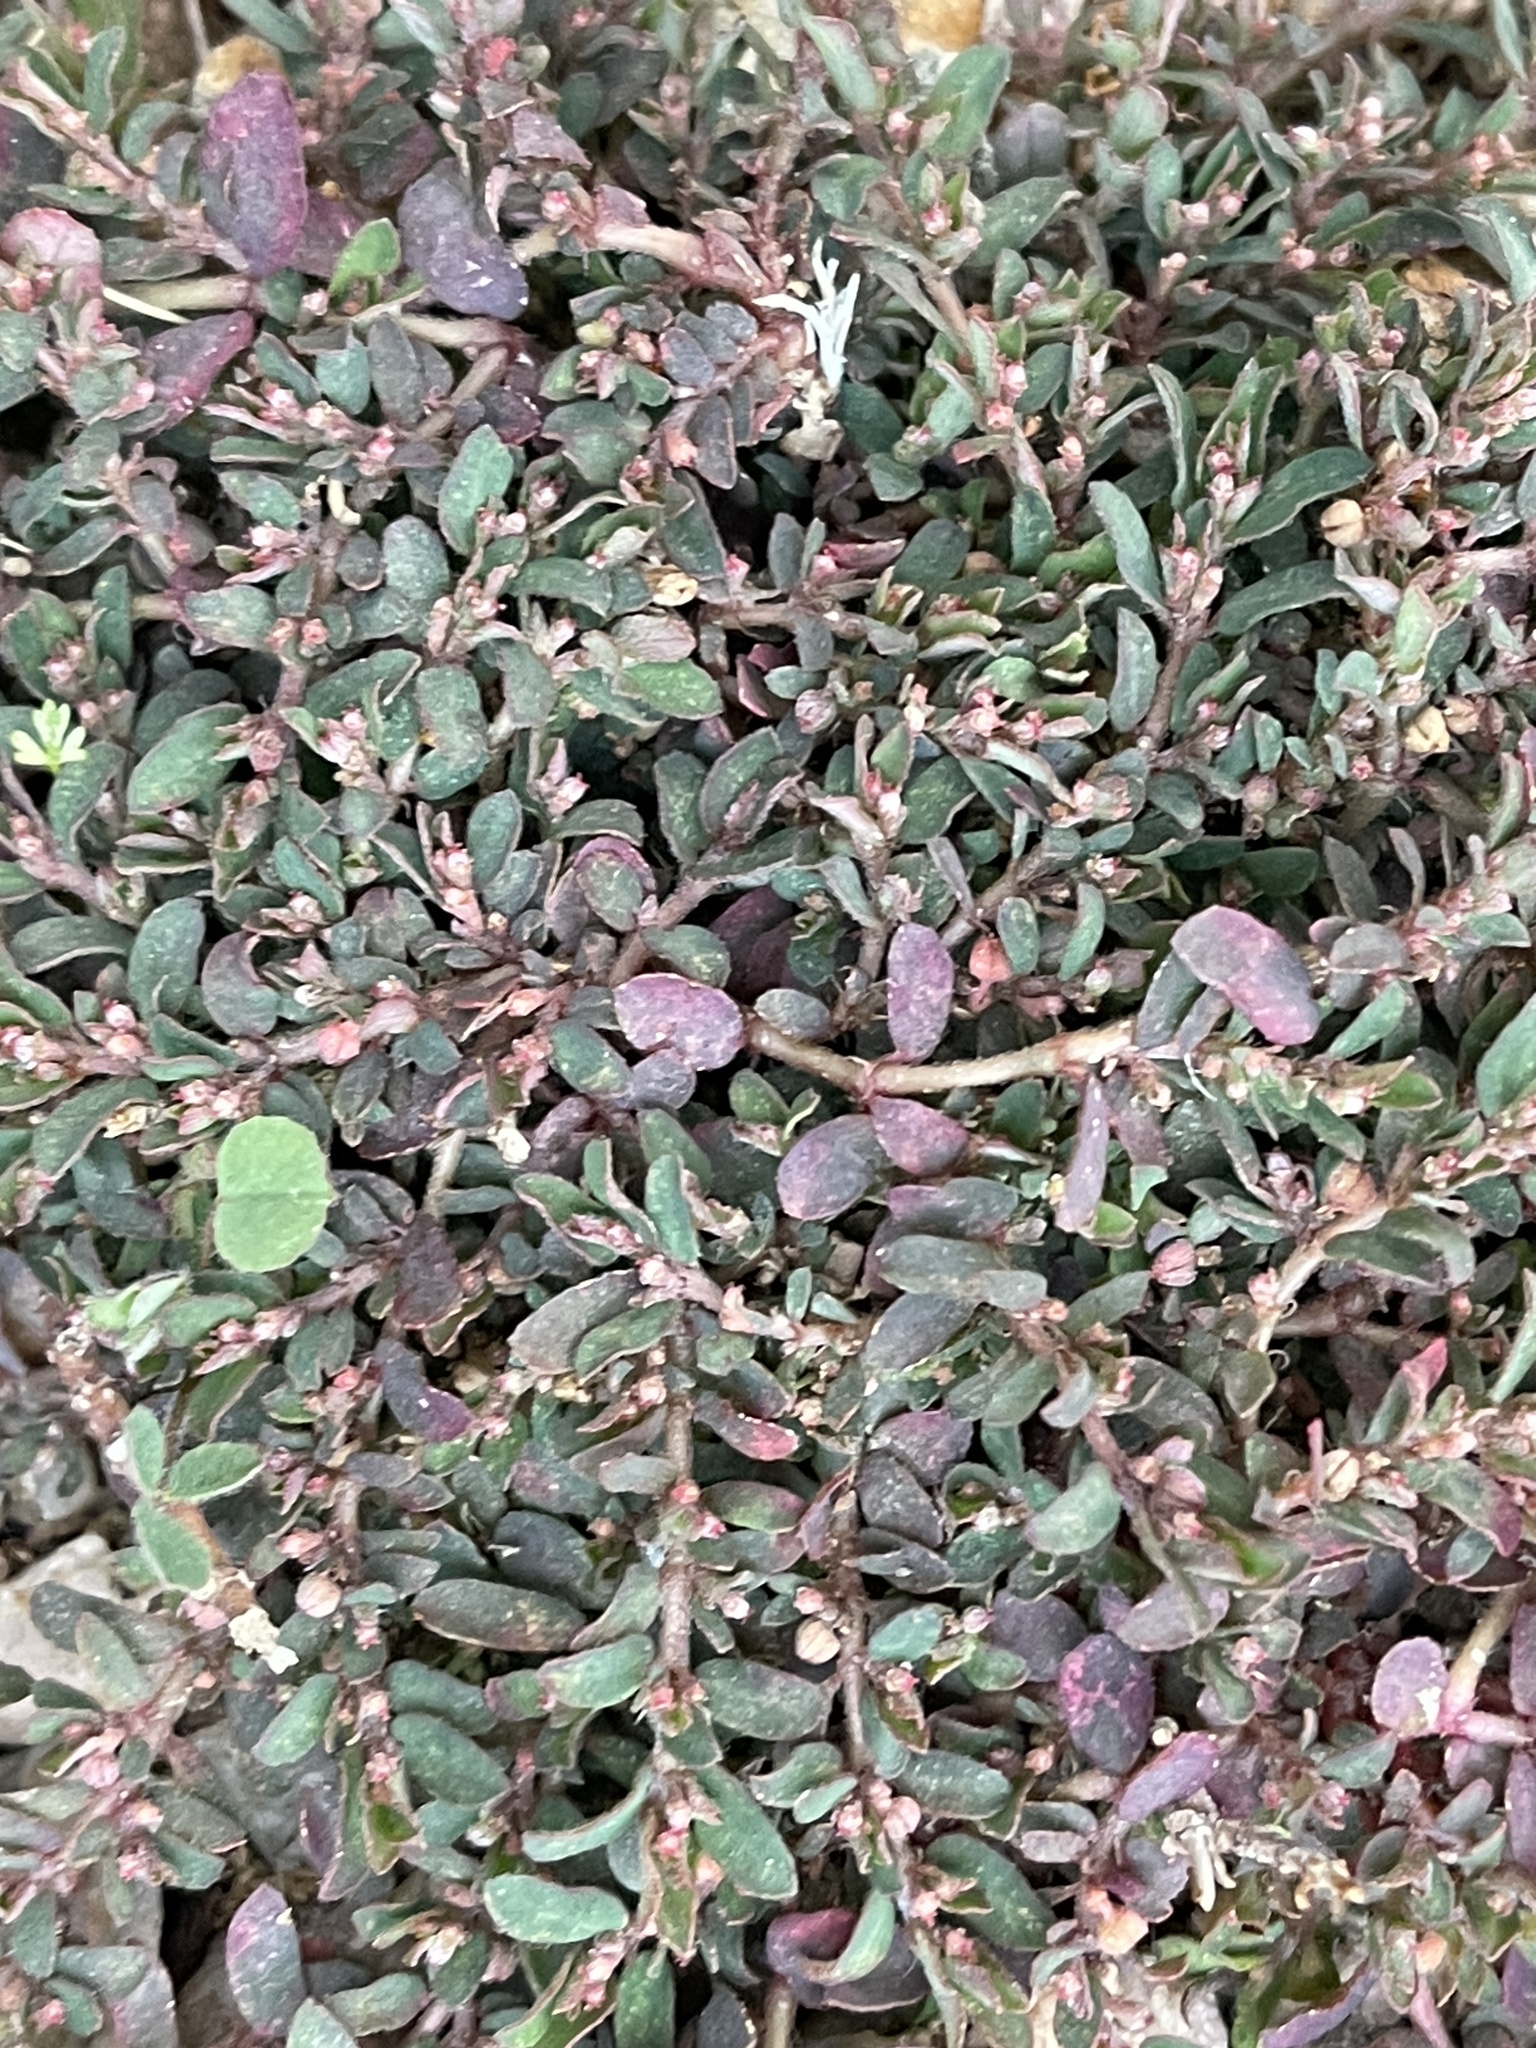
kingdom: Plantae
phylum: Tracheophyta
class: Magnoliopsida
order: Malpighiales
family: Euphorbiaceae
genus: Euphorbia
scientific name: Euphorbia maculata
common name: Spotted spurge
